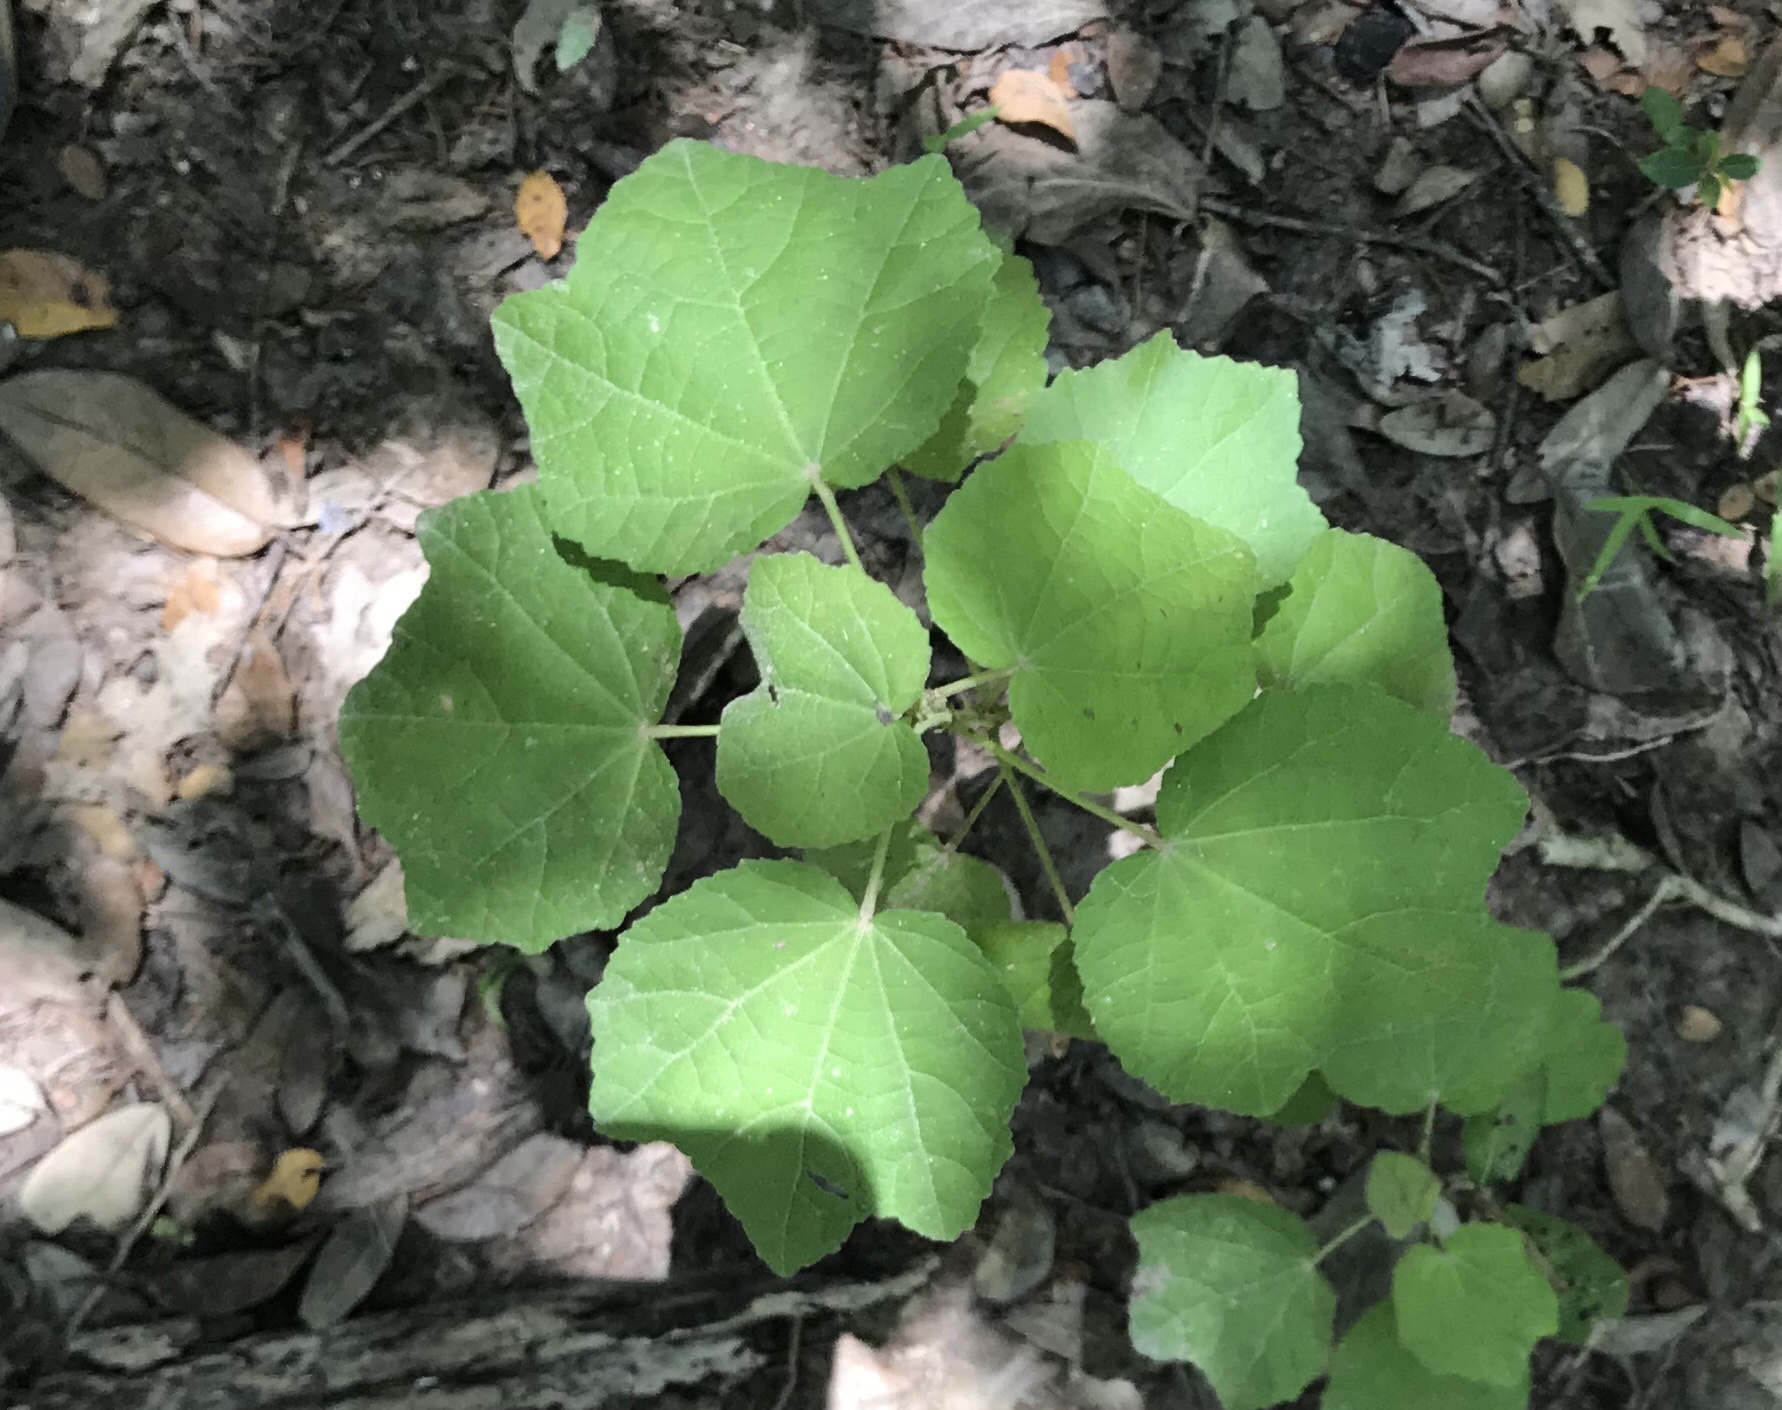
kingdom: Plantae
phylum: Tracheophyta
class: Magnoliopsida
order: Malvales
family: Malvaceae
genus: Malvaviscus
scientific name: Malvaviscus arboreus
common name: Wax mallow
